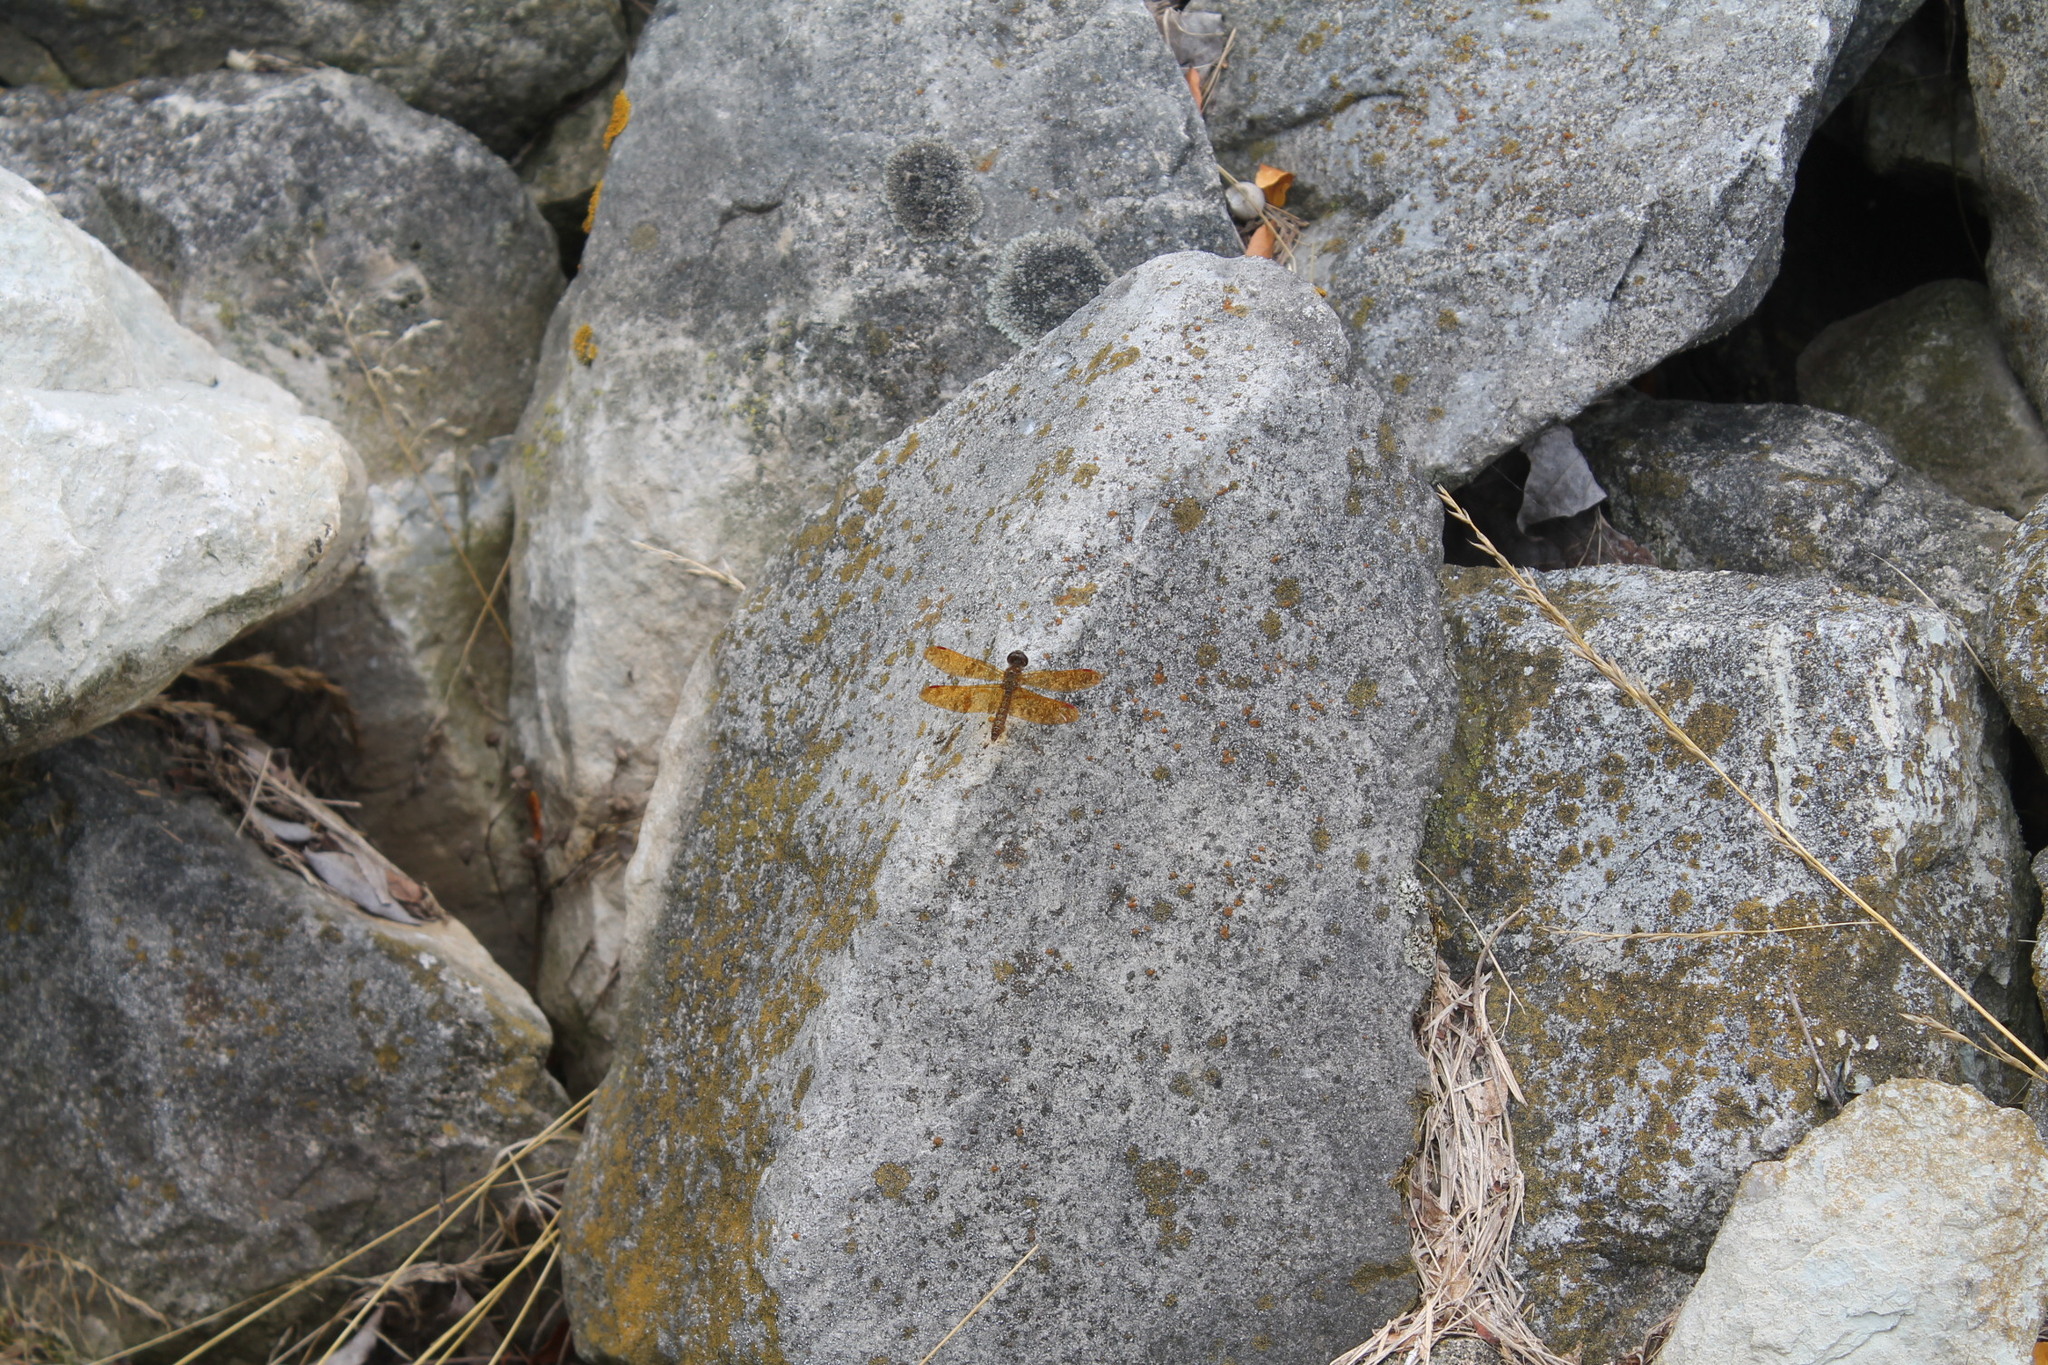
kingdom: Animalia
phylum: Arthropoda
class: Insecta
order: Odonata
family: Libellulidae
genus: Perithemis
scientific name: Perithemis tenera
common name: Eastern amberwing
